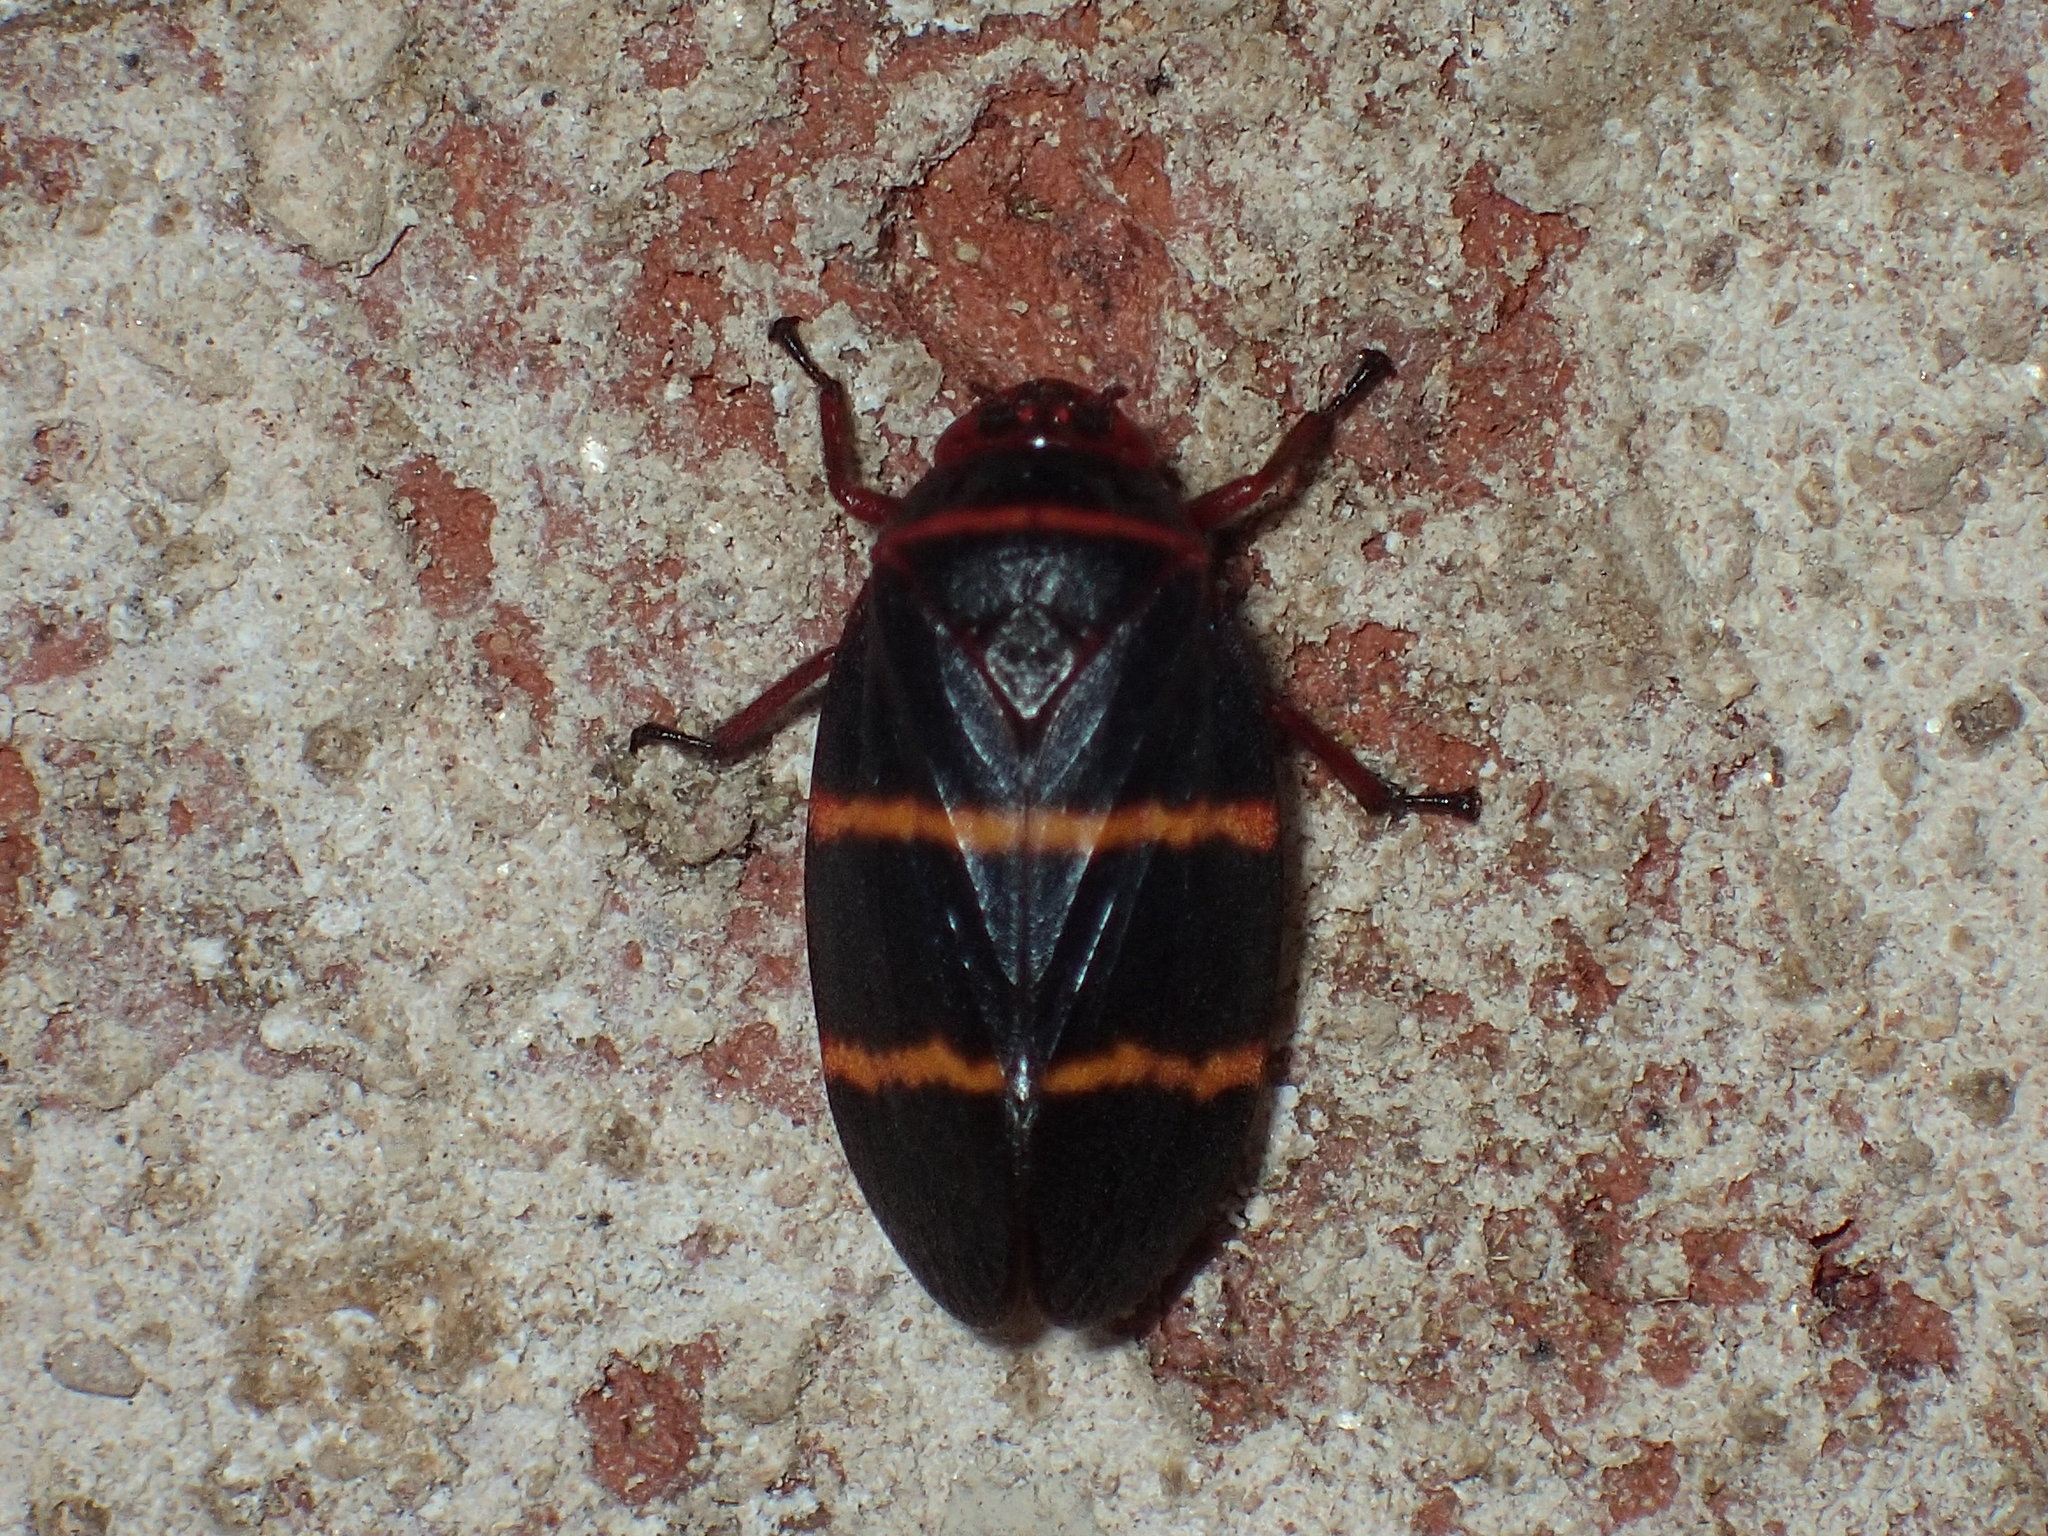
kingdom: Animalia
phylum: Arthropoda
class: Insecta
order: Hemiptera
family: Cercopidae
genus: Prosapia
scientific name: Prosapia bicincta
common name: Twolined spittlebug
